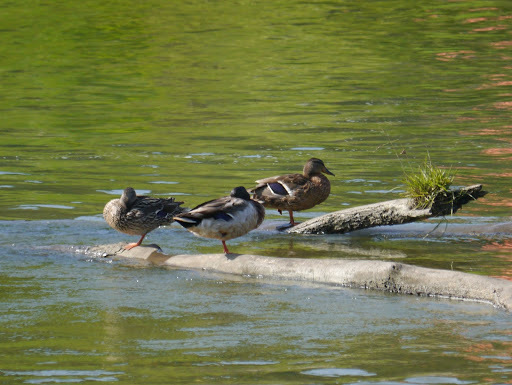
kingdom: Animalia
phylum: Chordata
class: Aves
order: Anseriformes
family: Anatidae
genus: Anas
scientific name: Anas platyrhynchos
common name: Mallard
